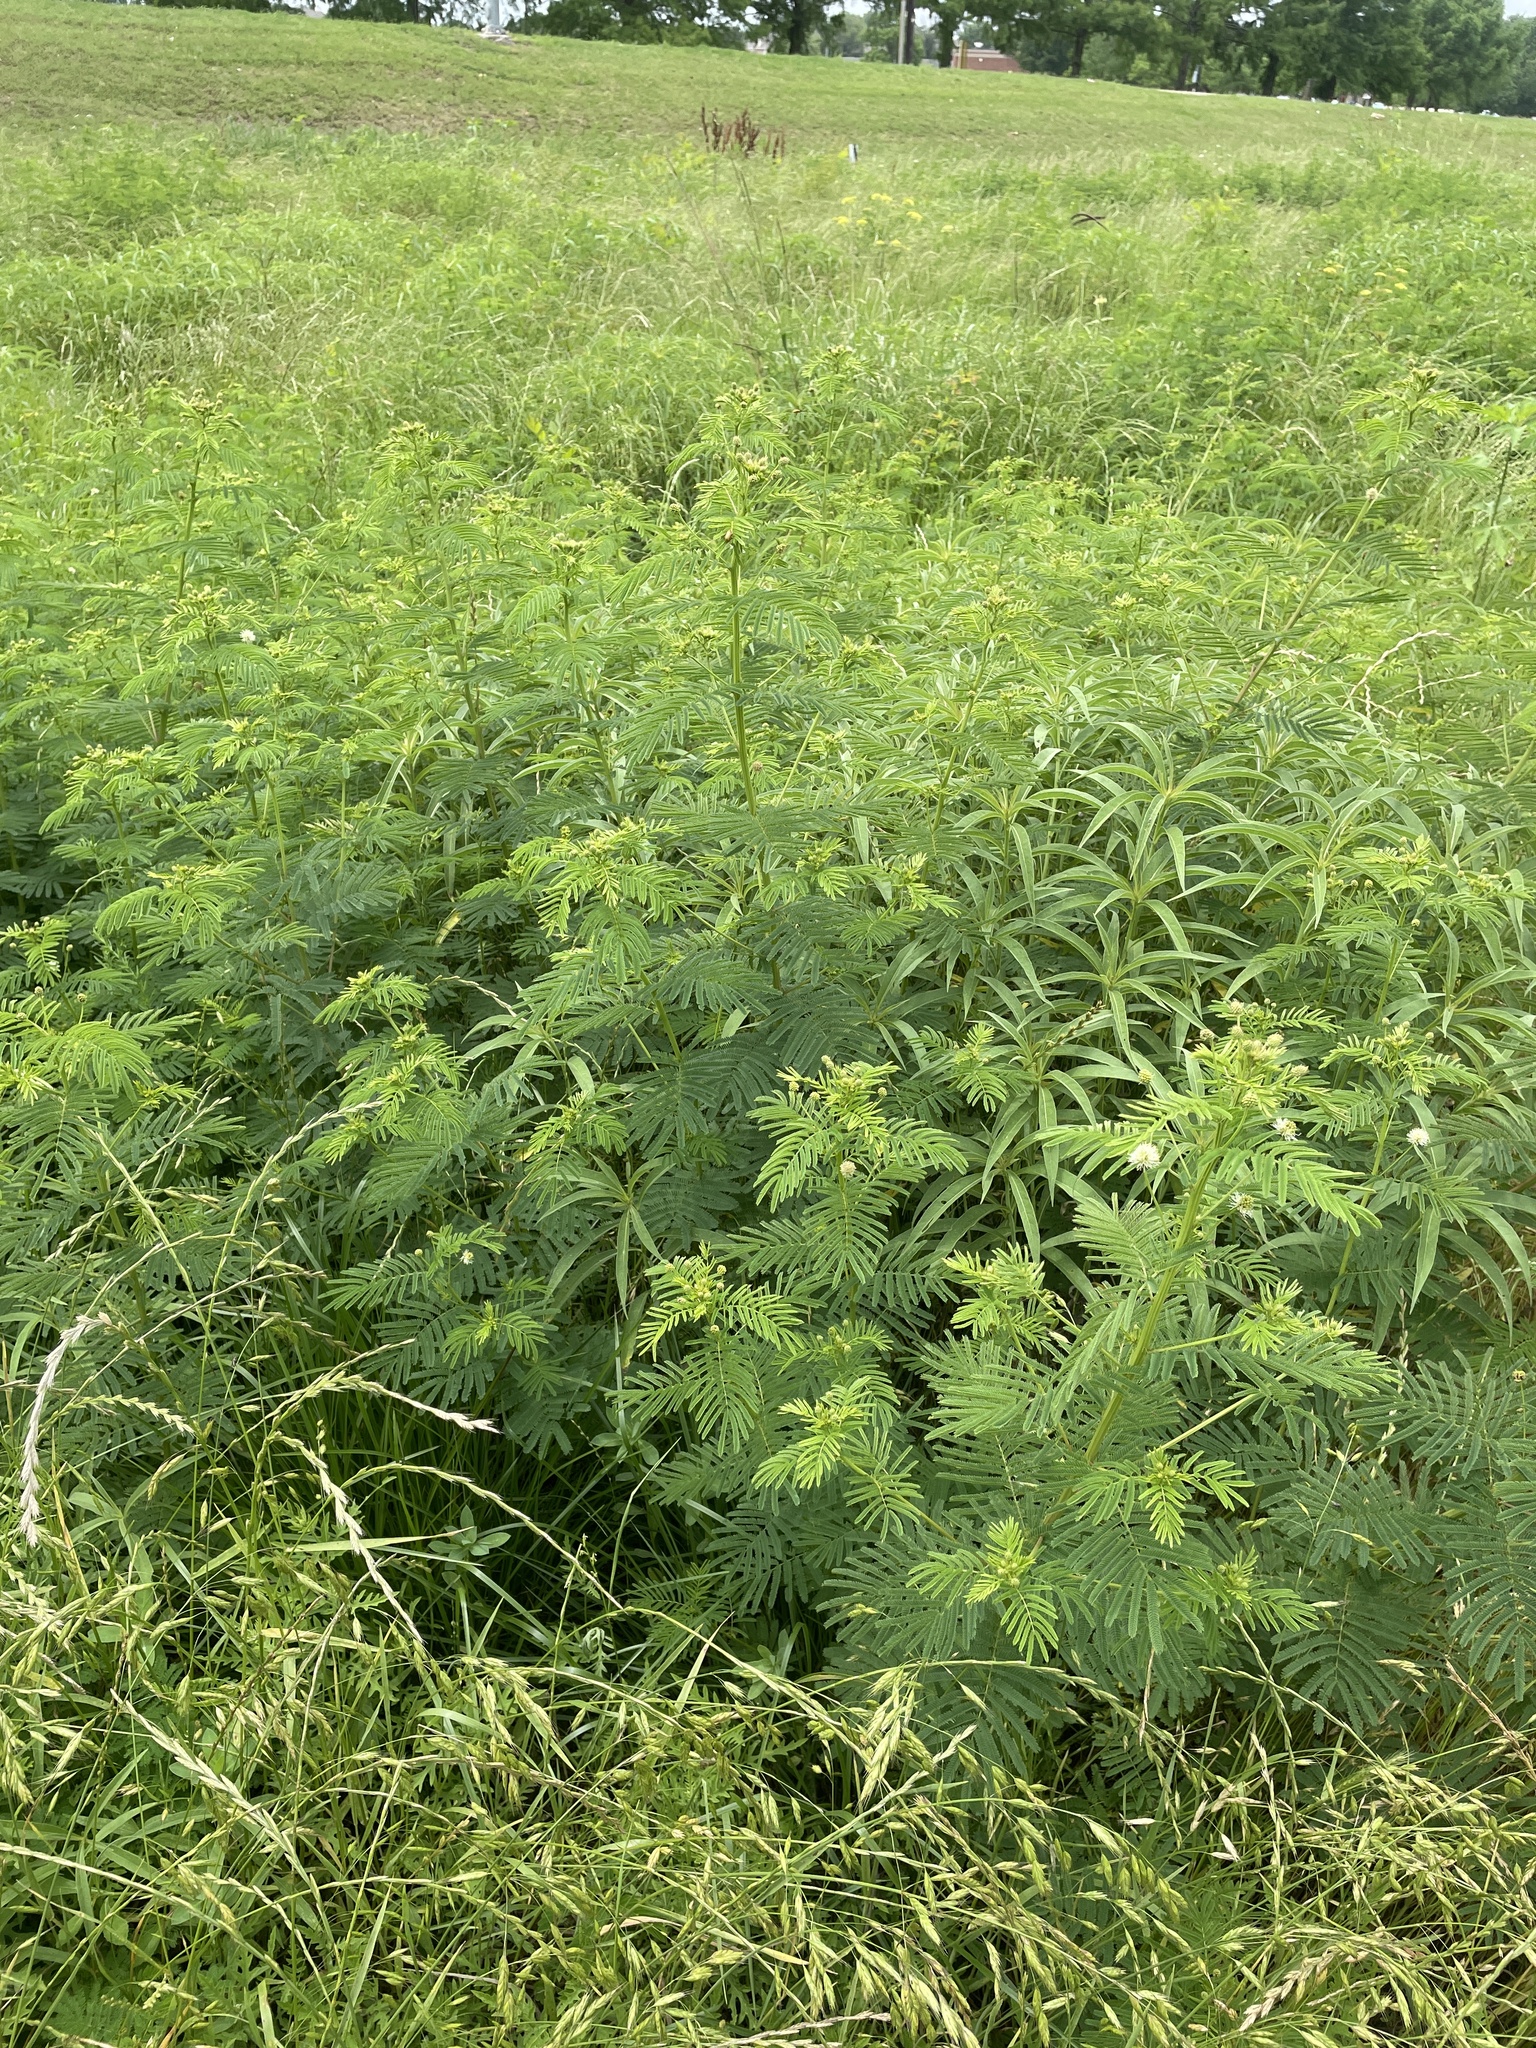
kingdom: Plantae
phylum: Tracheophyta
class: Magnoliopsida
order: Fabales
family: Fabaceae
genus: Desmanthus
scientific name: Desmanthus illinoensis
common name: Illinois bundle-flower
